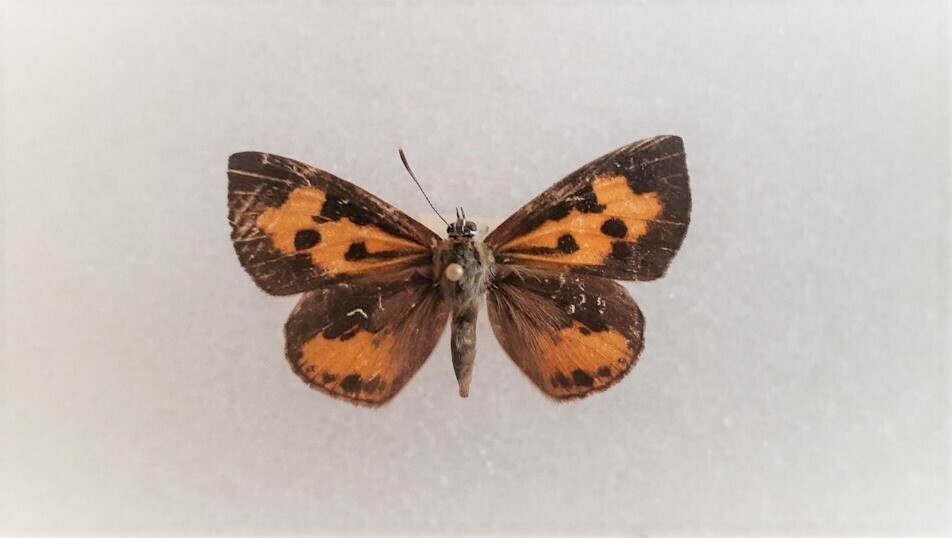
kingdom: Animalia
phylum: Arthropoda
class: Insecta
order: Lepidoptera
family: Lycaenidae
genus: Feniseca
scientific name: Feniseca tarquinius
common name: Harvester
